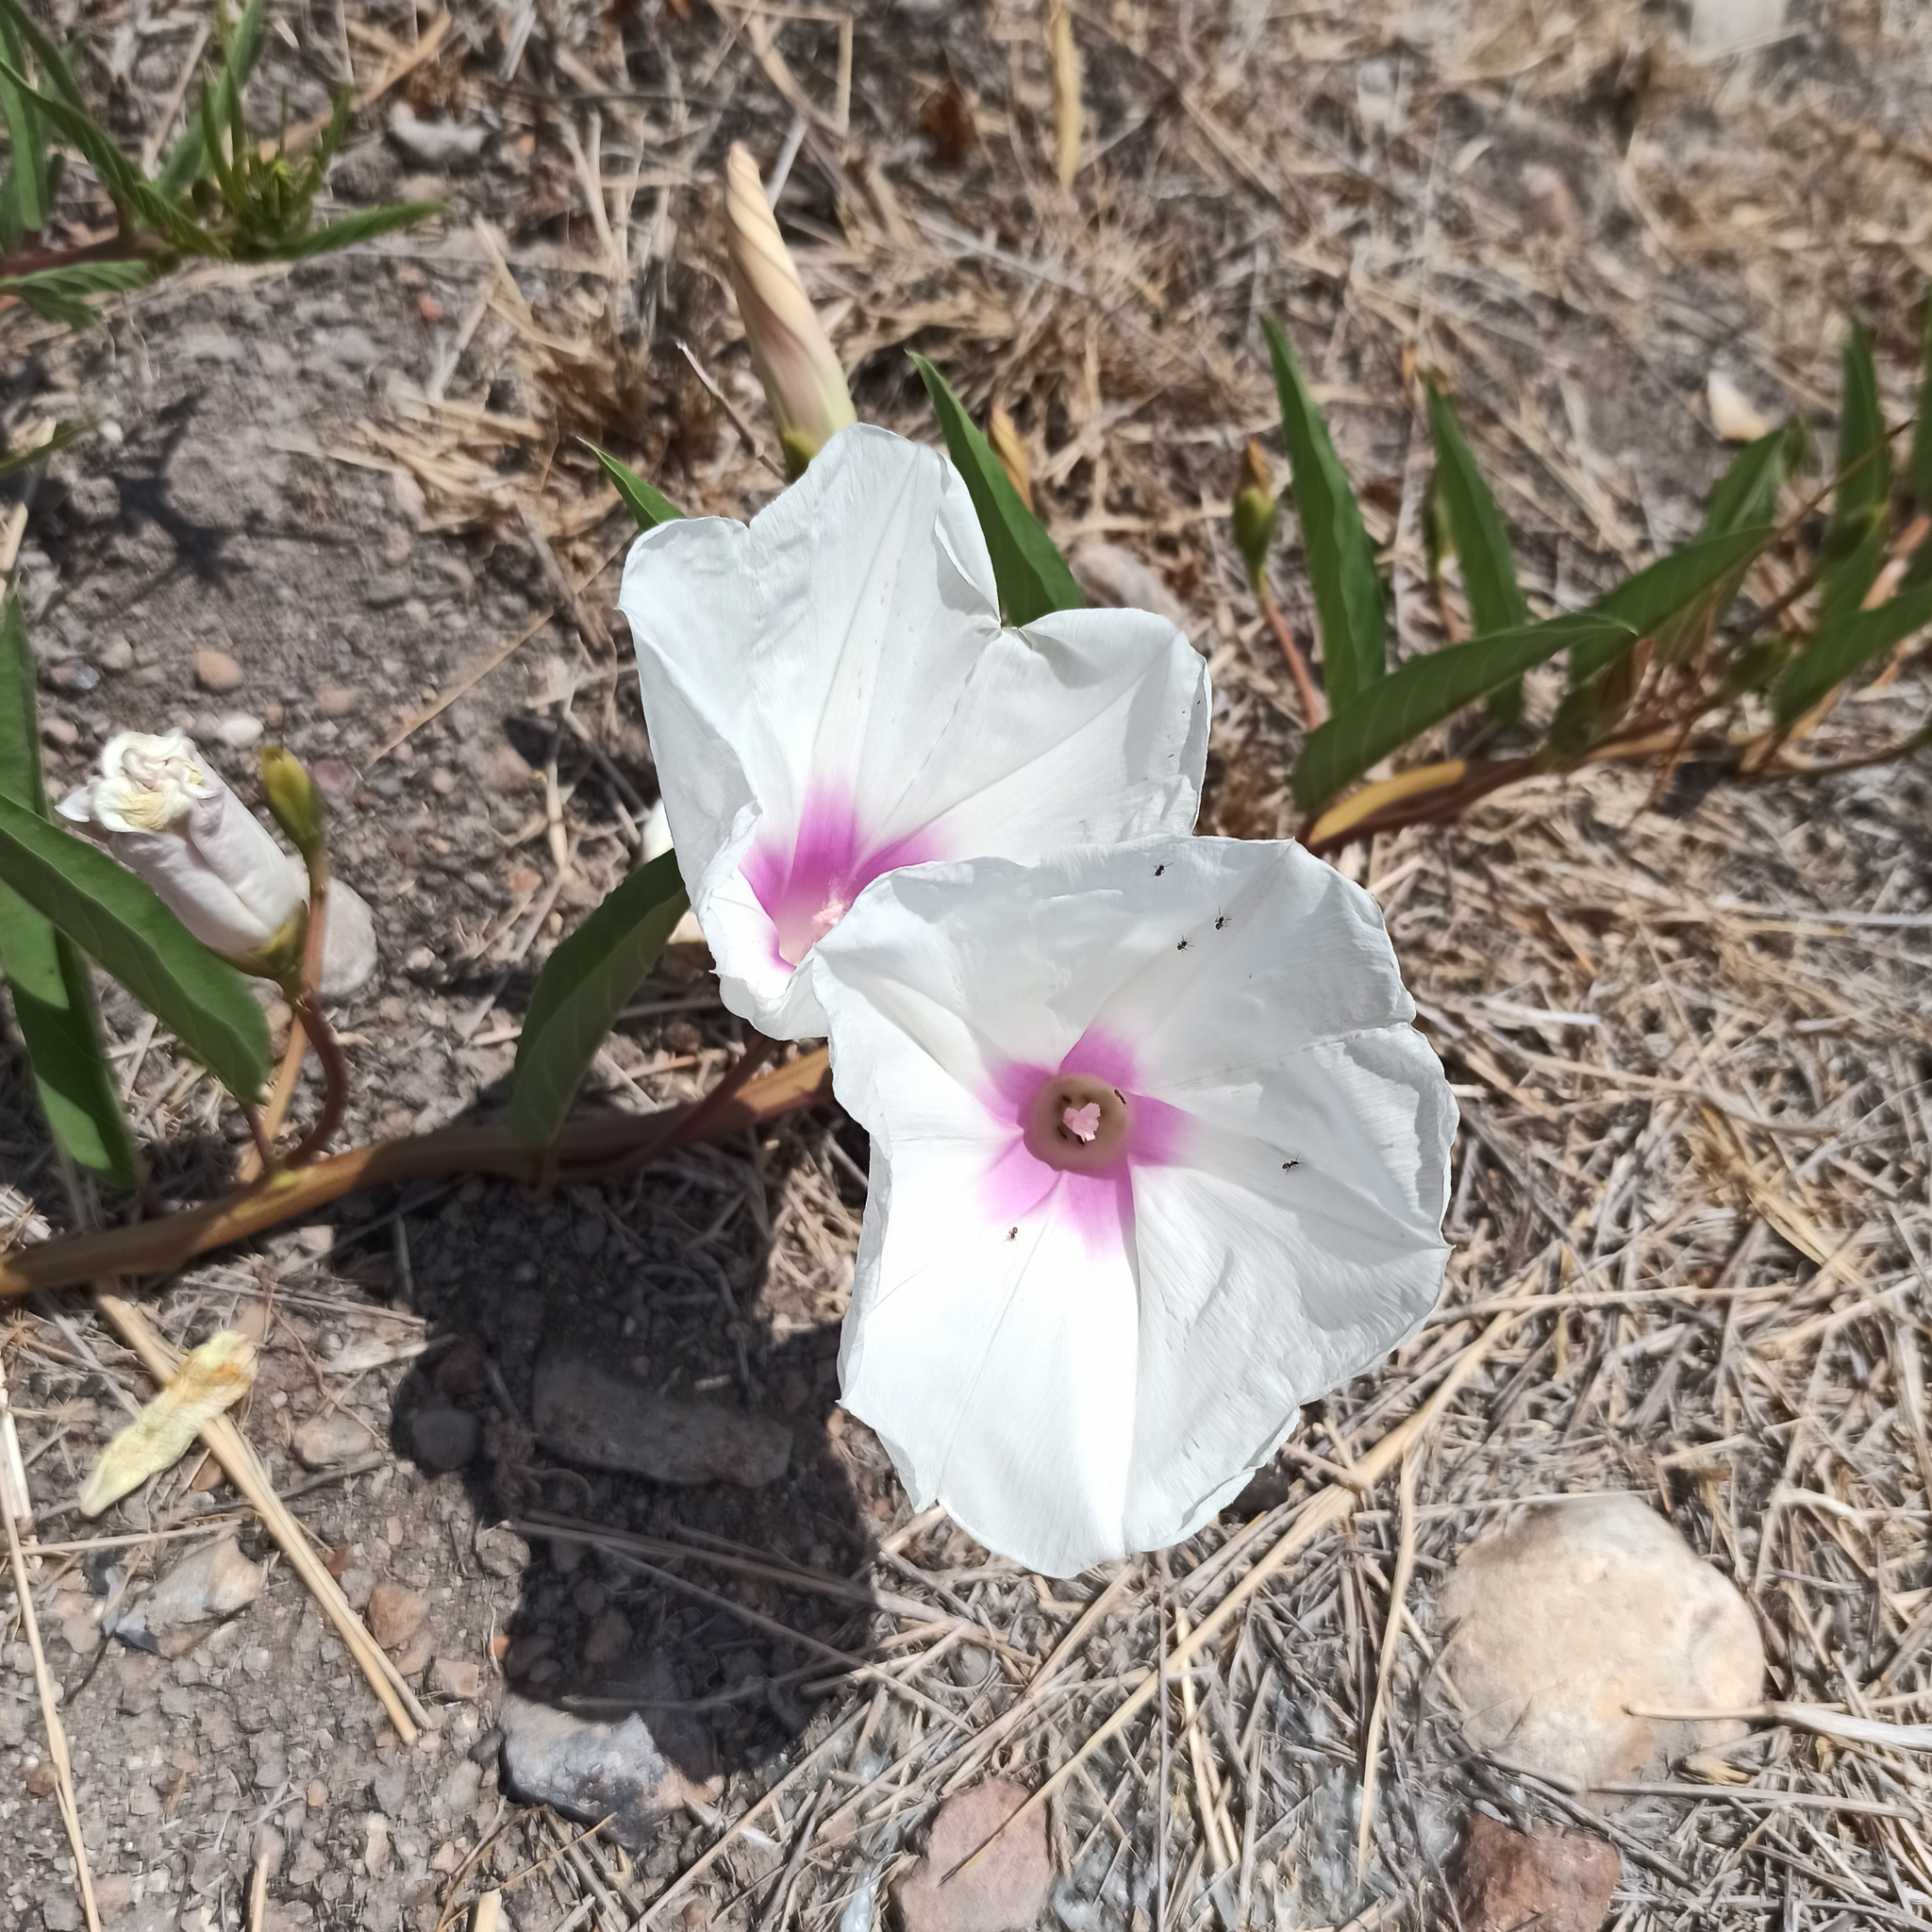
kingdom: Plantae
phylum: Tracheophyta
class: Magnoliopsida
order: Solanales
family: Convolvulaceae
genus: Ipomoea
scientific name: Ipomoea longifolia
